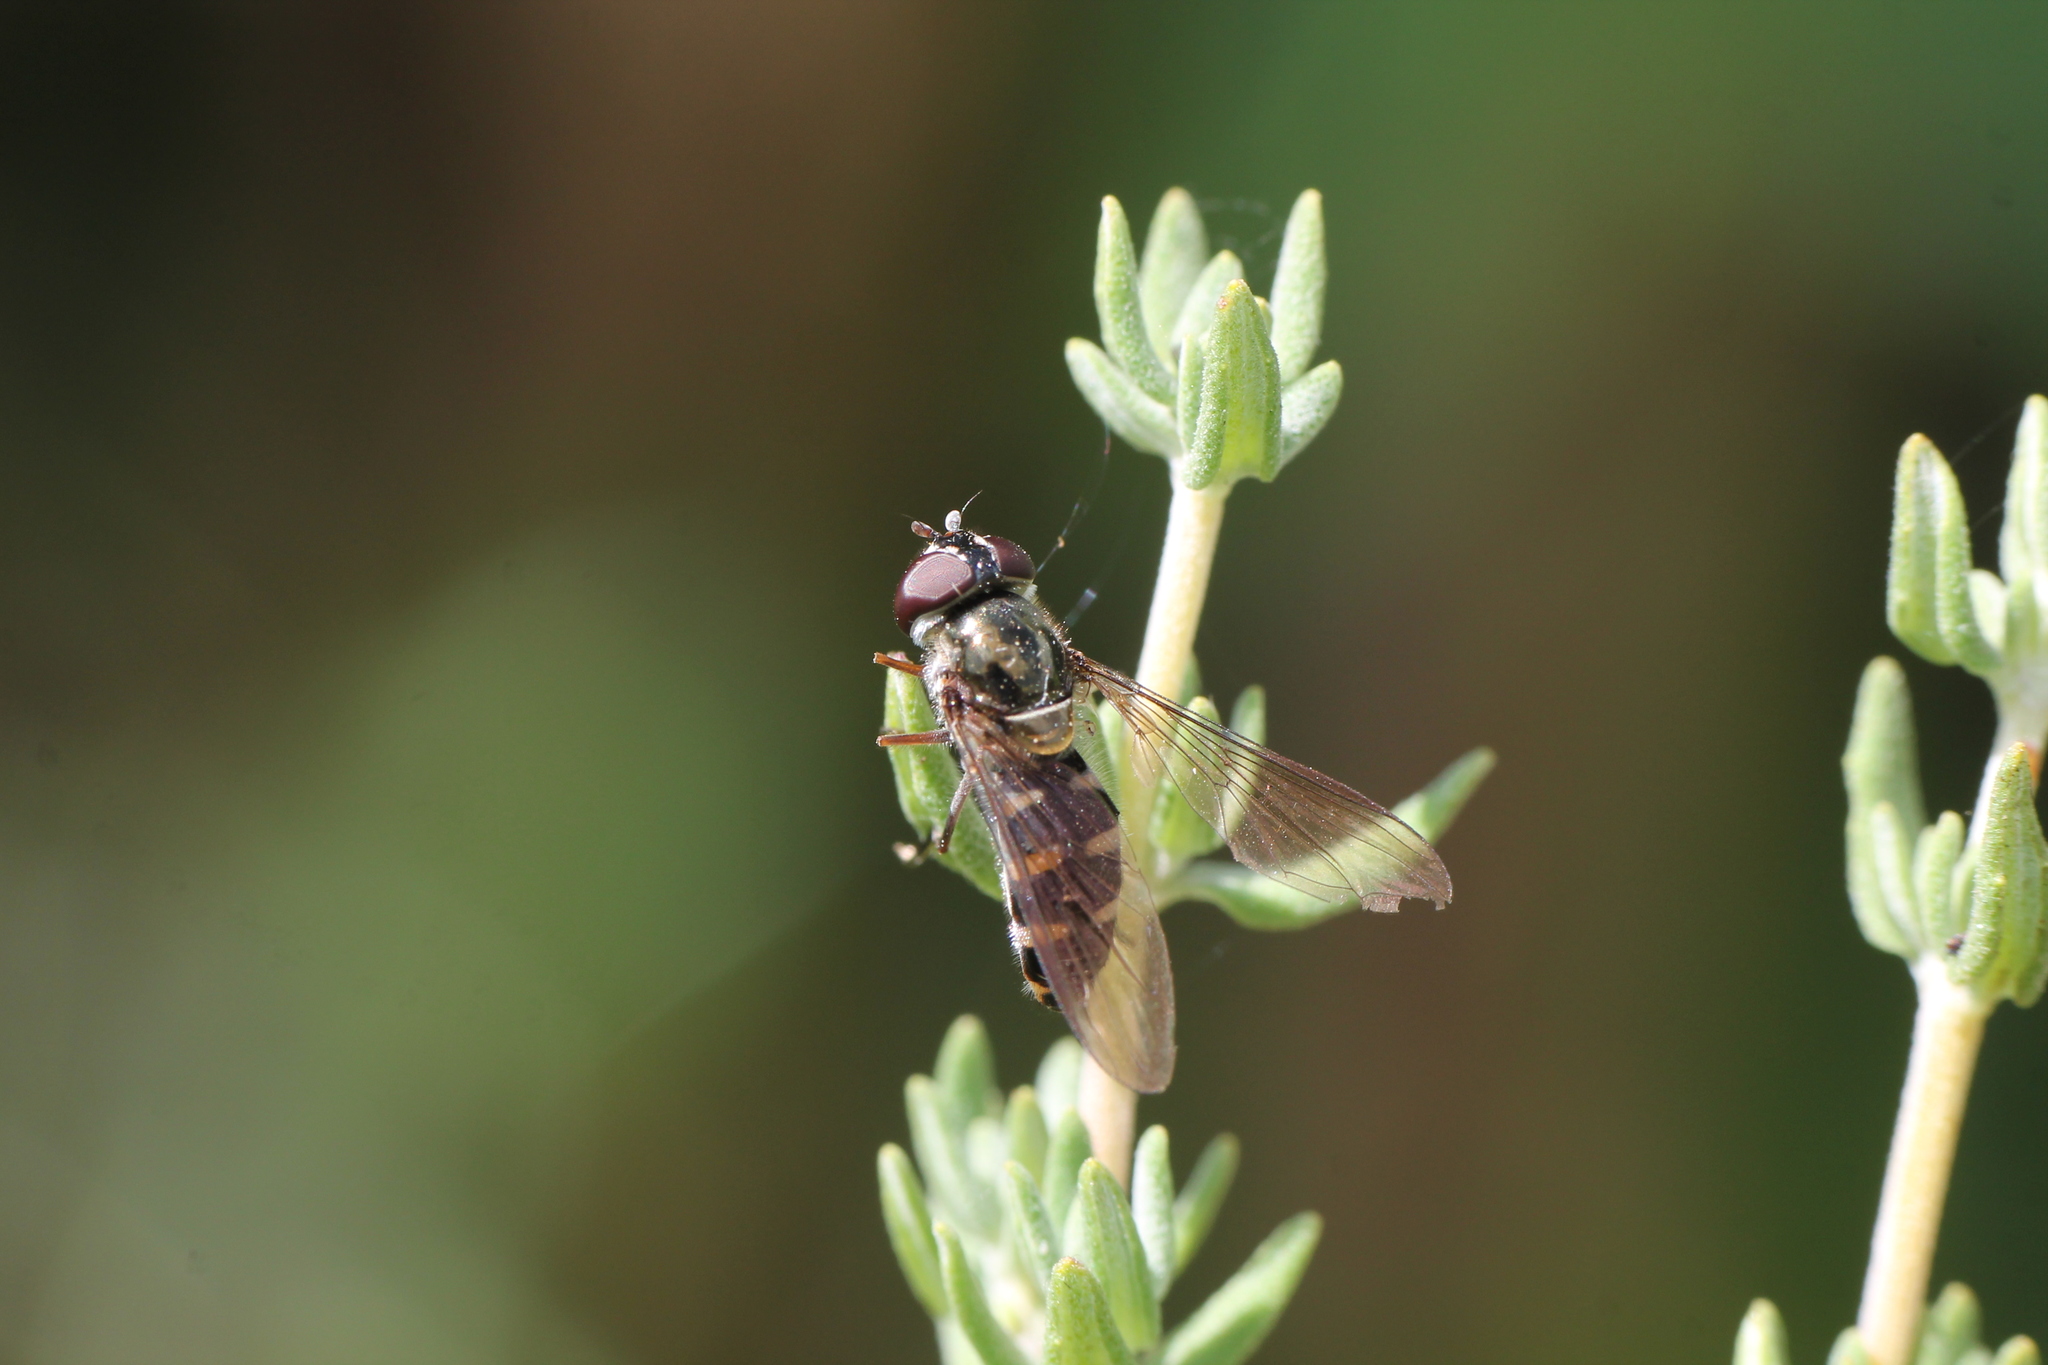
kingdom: Animalia
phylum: Arthropoda
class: Insecta
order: Diptera
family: Syrphidae
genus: Melangyna
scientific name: Melangyna novaezelandiae
